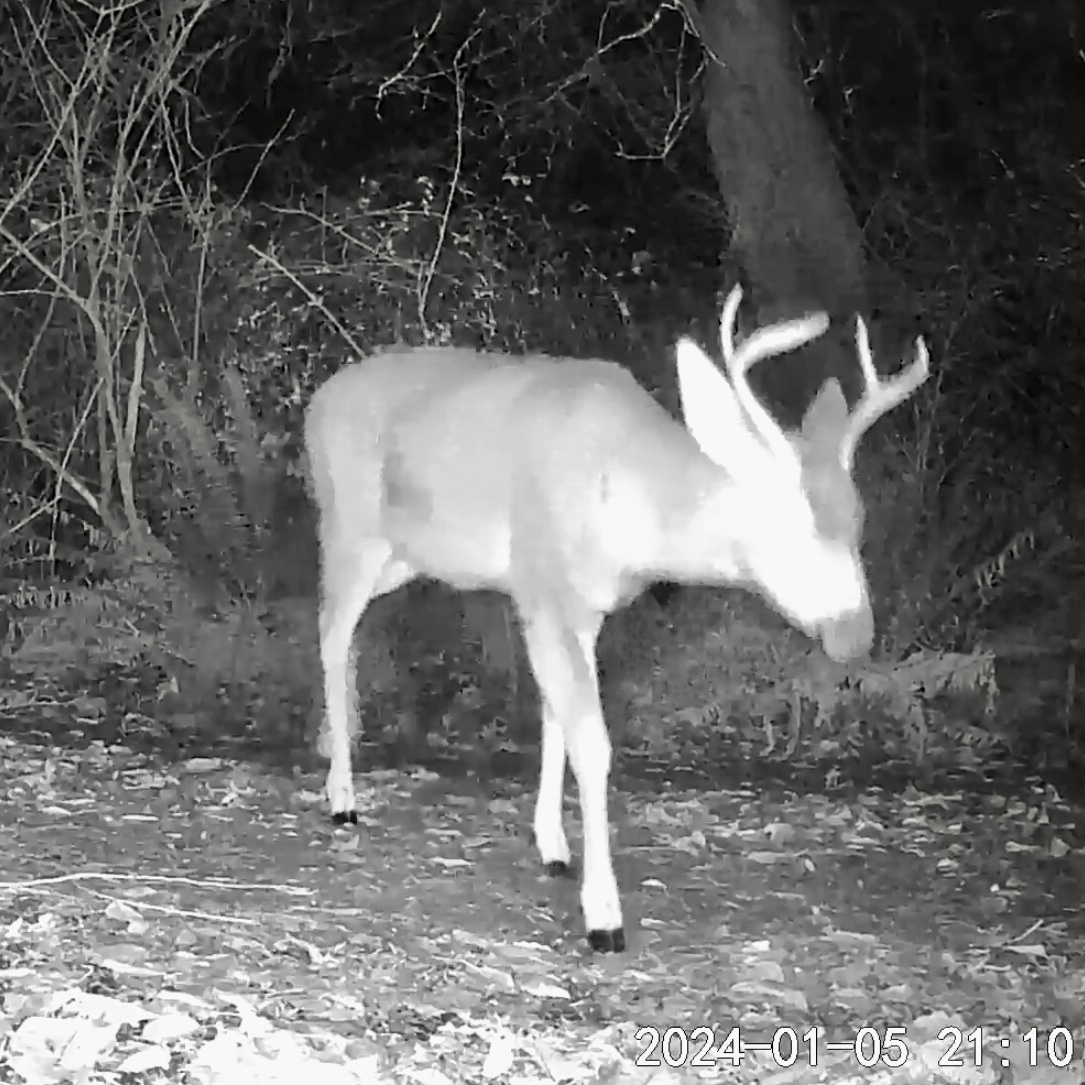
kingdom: Animalia
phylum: Chordata
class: Mammalia
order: Artiodactyla
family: Cervidae
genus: Odocoileus
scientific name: Odocoileus hemionus
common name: Mule deer
